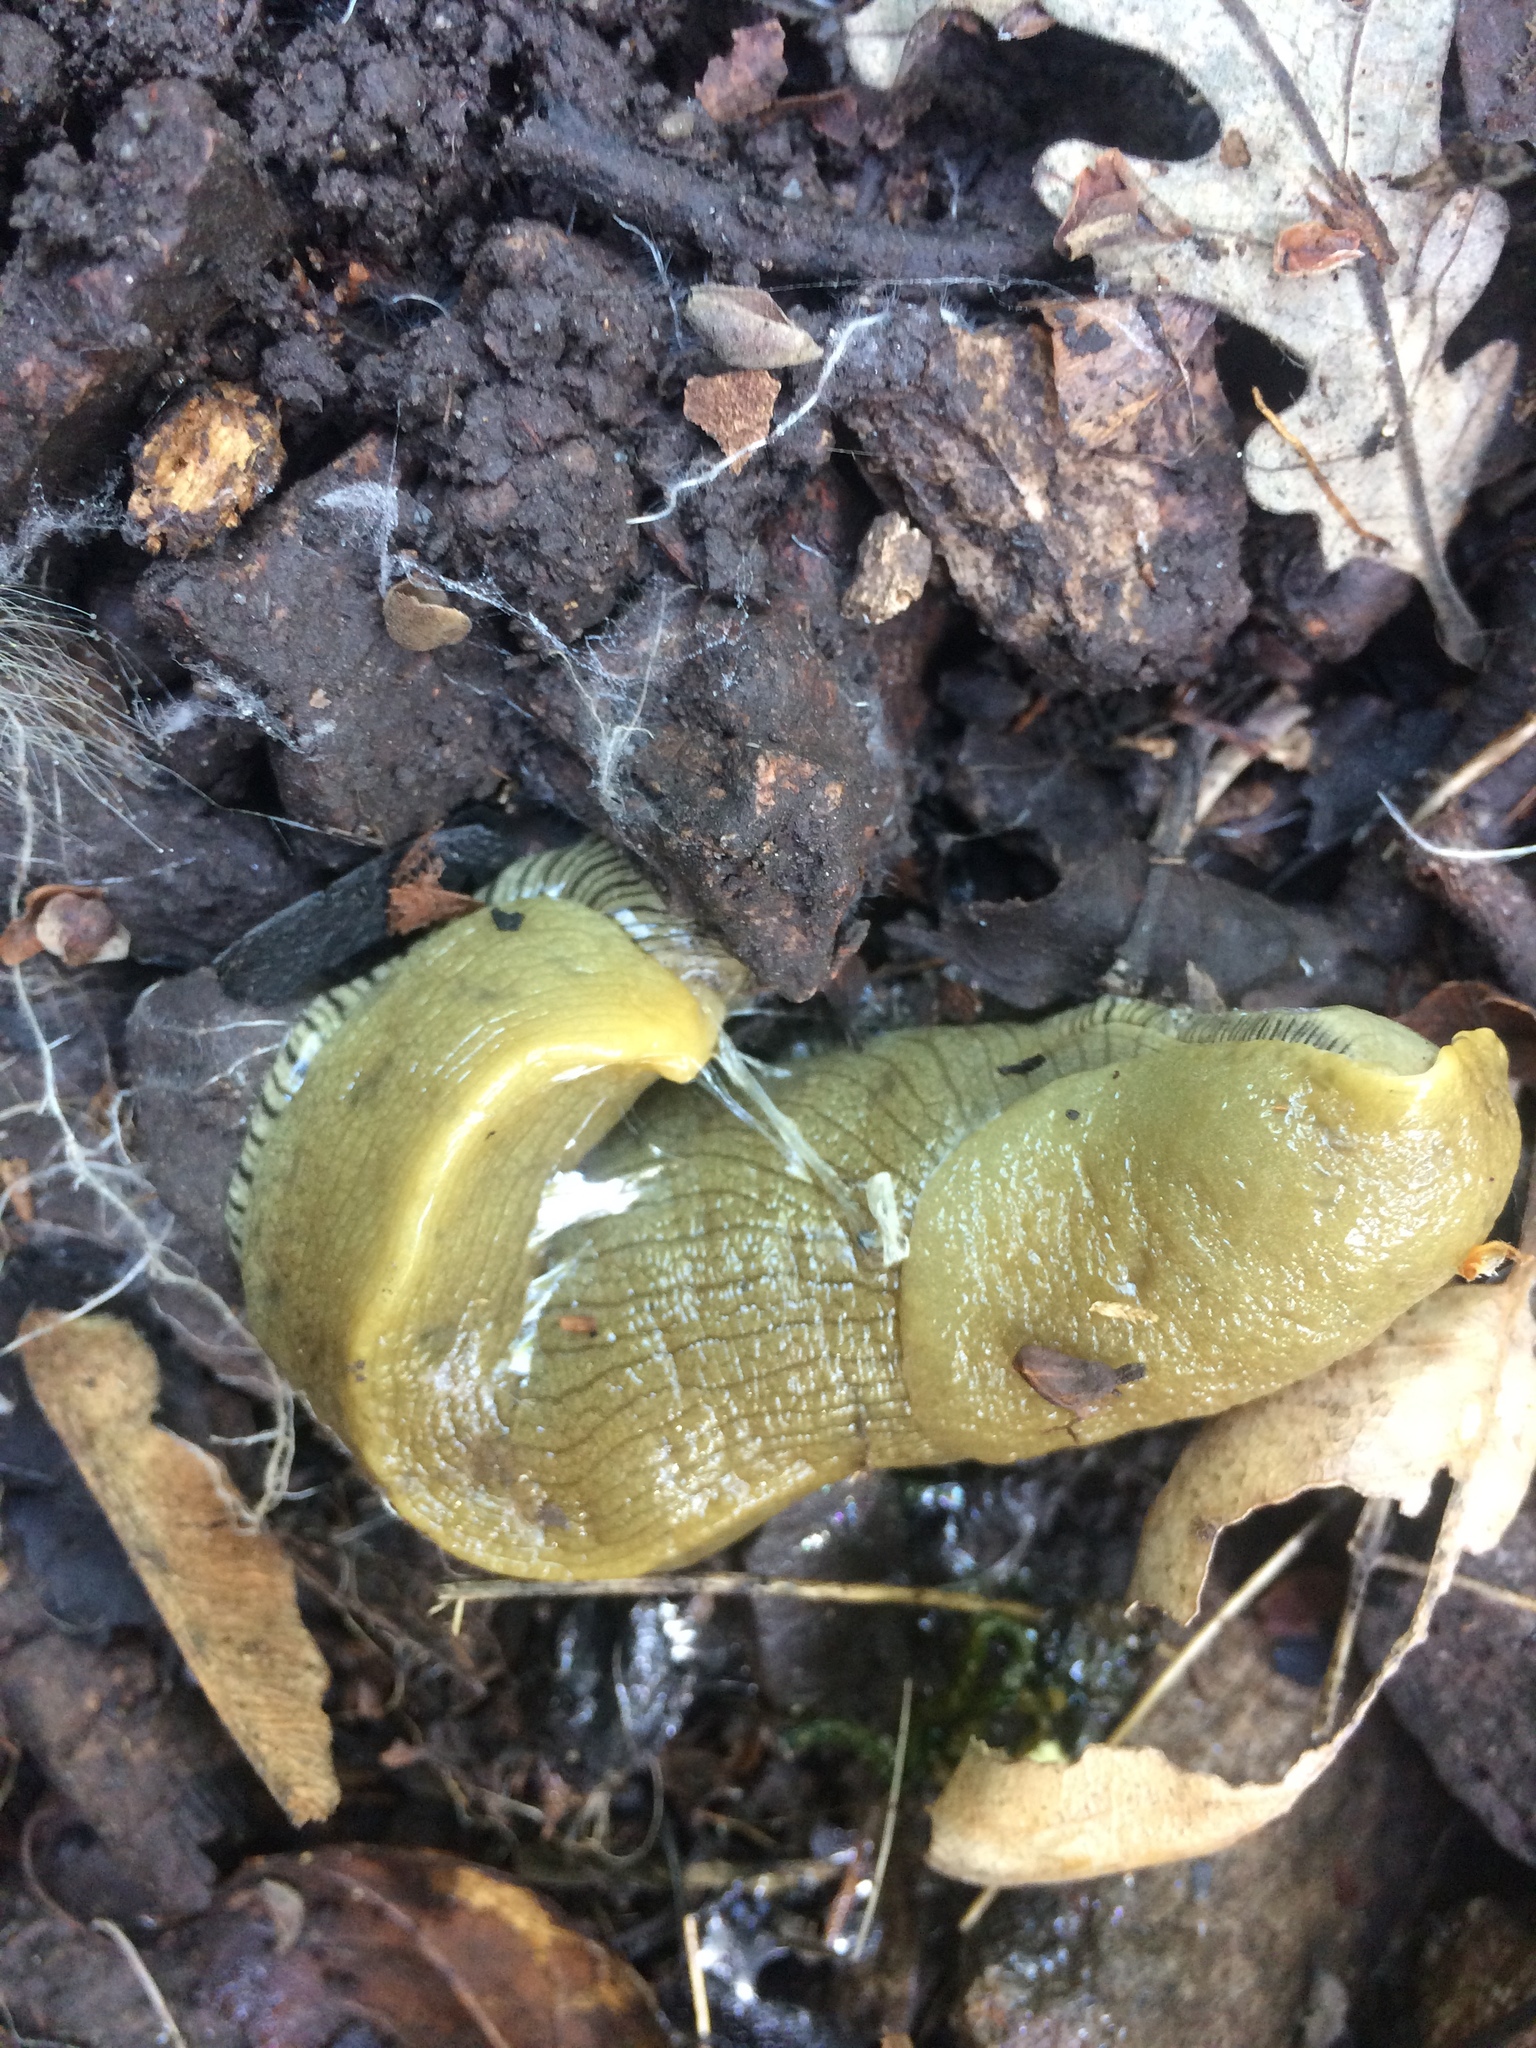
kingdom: Animalia
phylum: Mollusca
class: Gastropoda
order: Stylommatophora
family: Ariolimacidae
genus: Ariolimax
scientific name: Ariolimax buttoni
